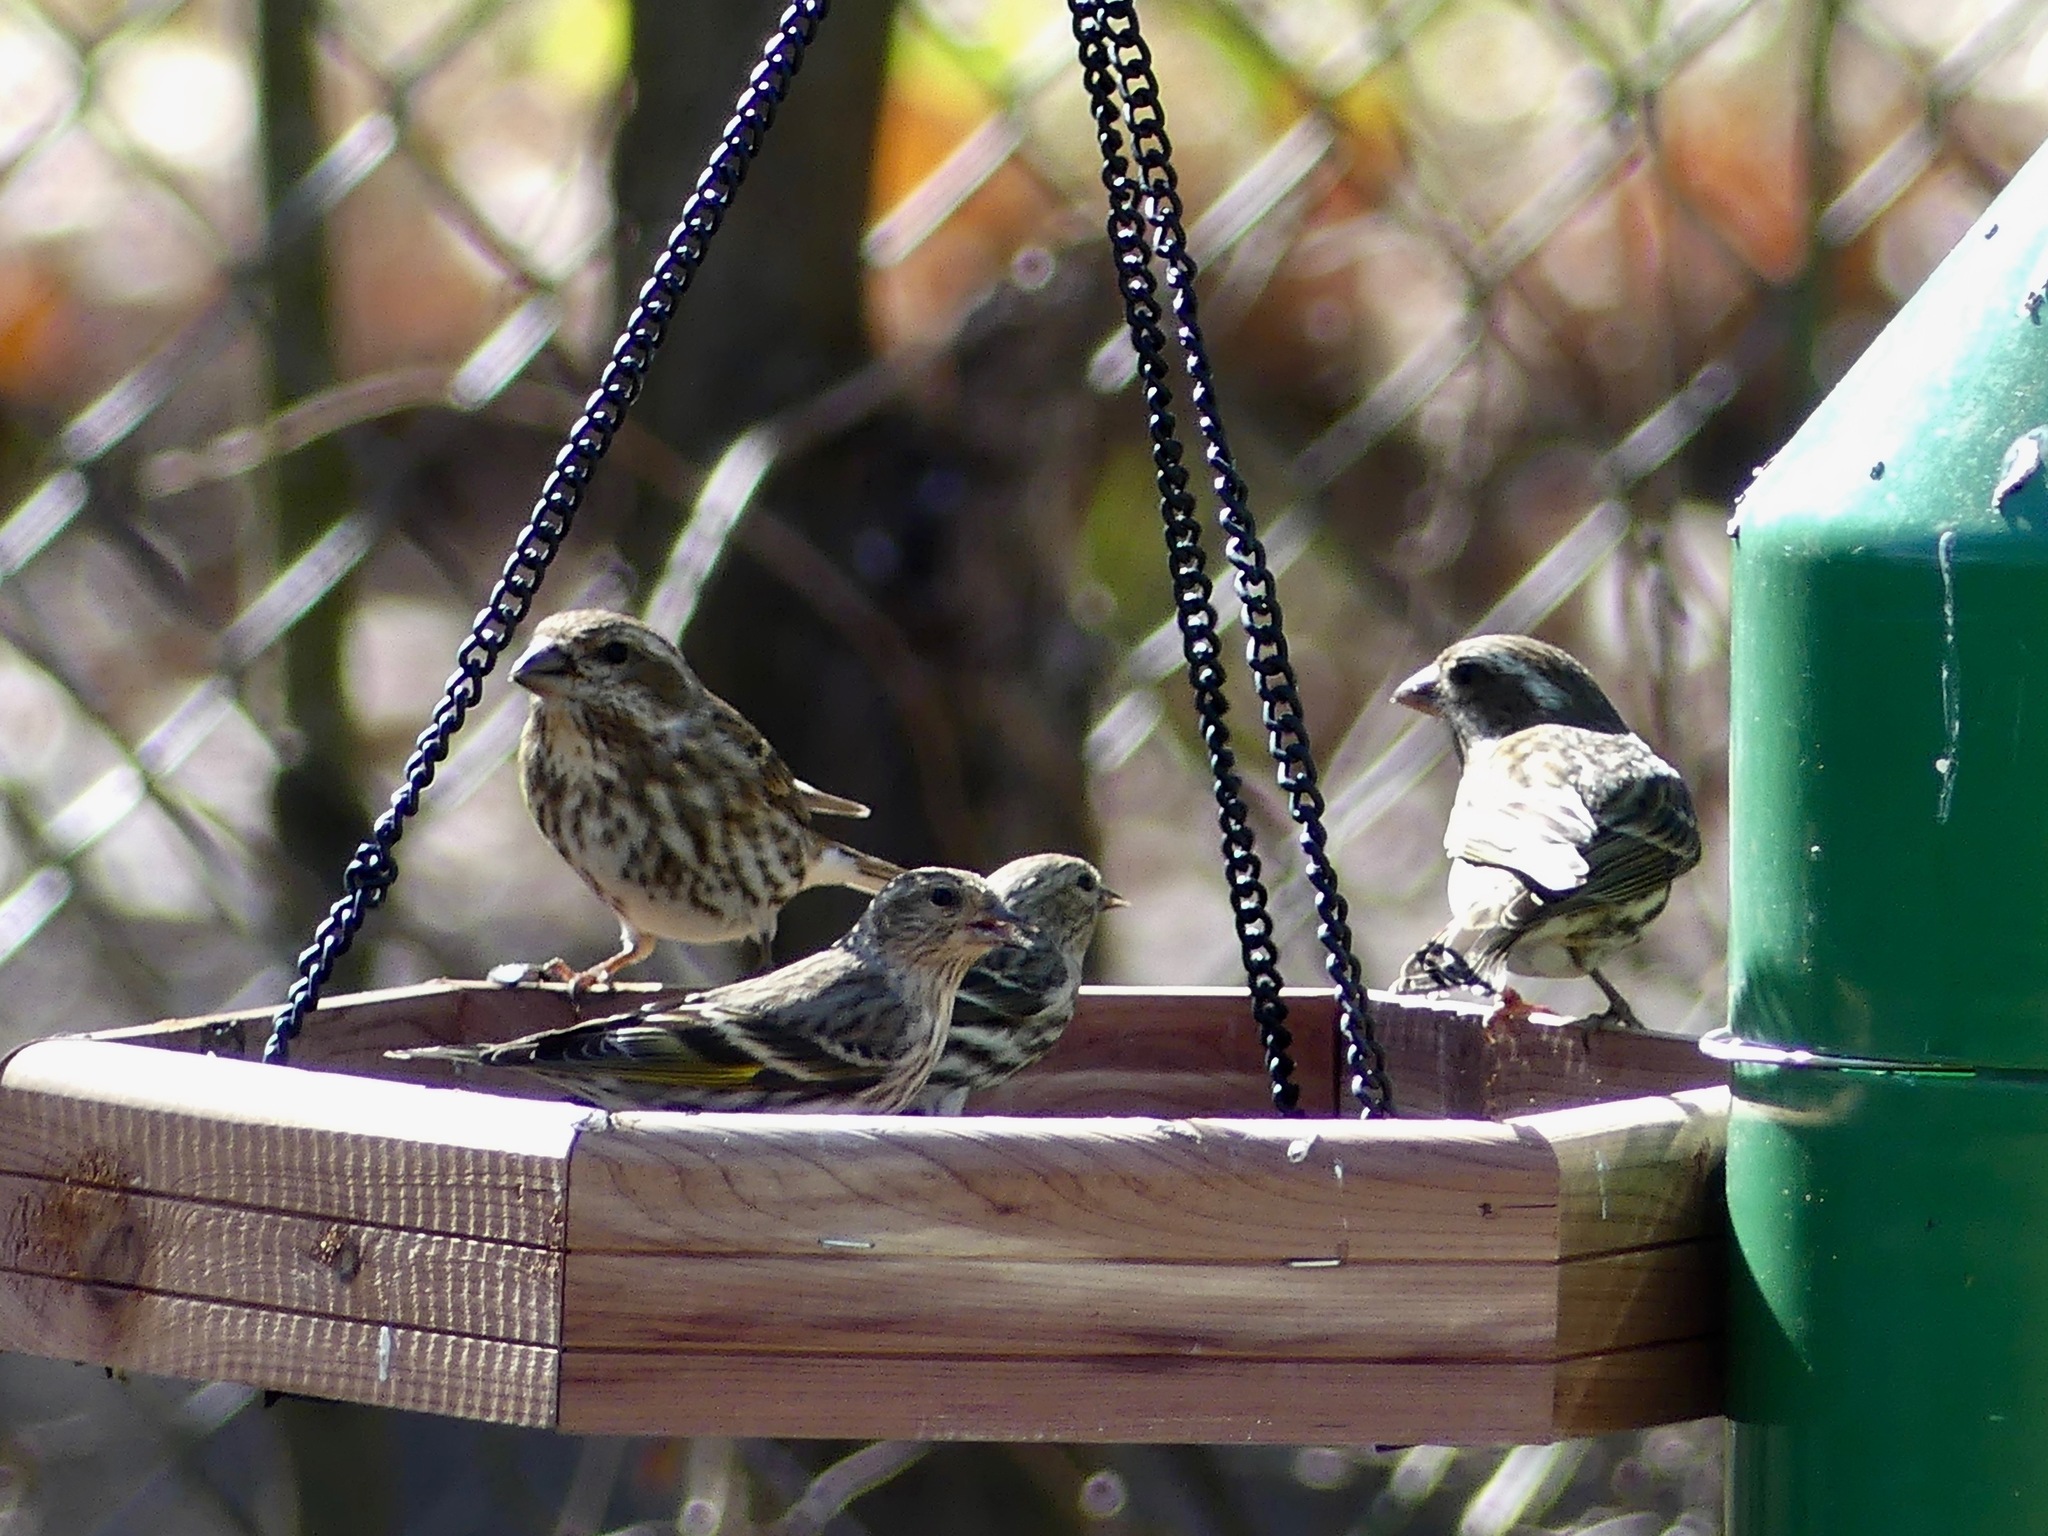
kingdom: Animalia
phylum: Chordata
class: Aves
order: Passeriformes
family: Fringillidae
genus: Haemorhous
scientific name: Haemorhous purpureus
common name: Purple finch
